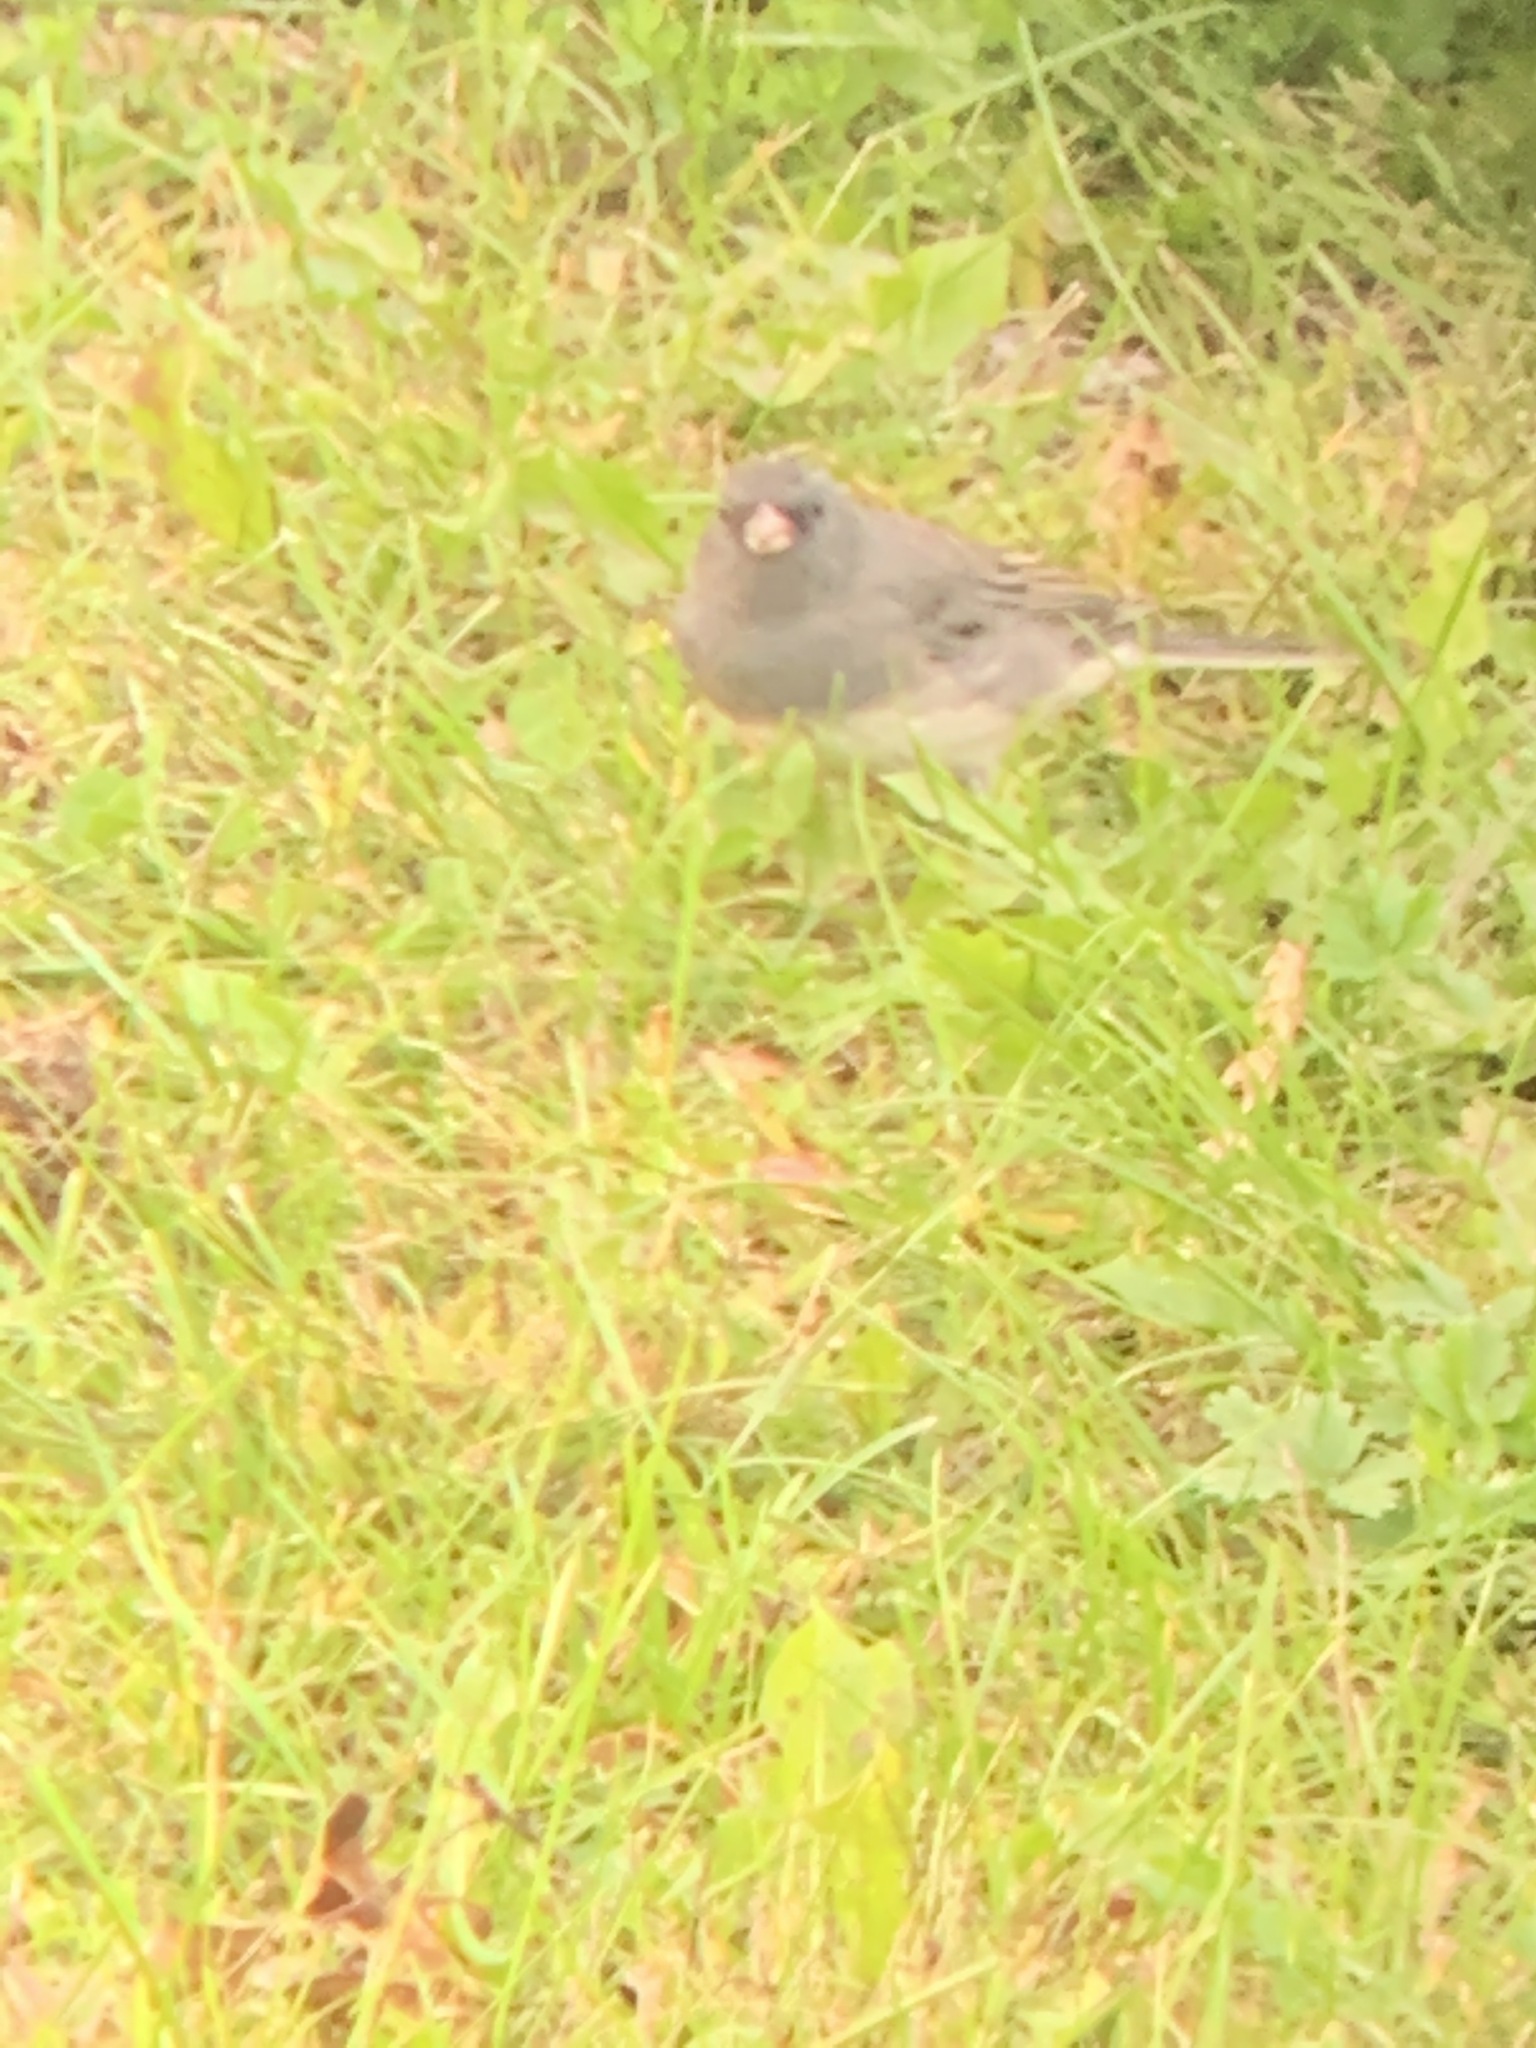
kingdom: Animalia
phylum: Chordata
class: Aves
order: Passeriformes
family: Passerellidae
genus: Junco
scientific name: Junco hyemalis
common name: Dark-eyed junco
